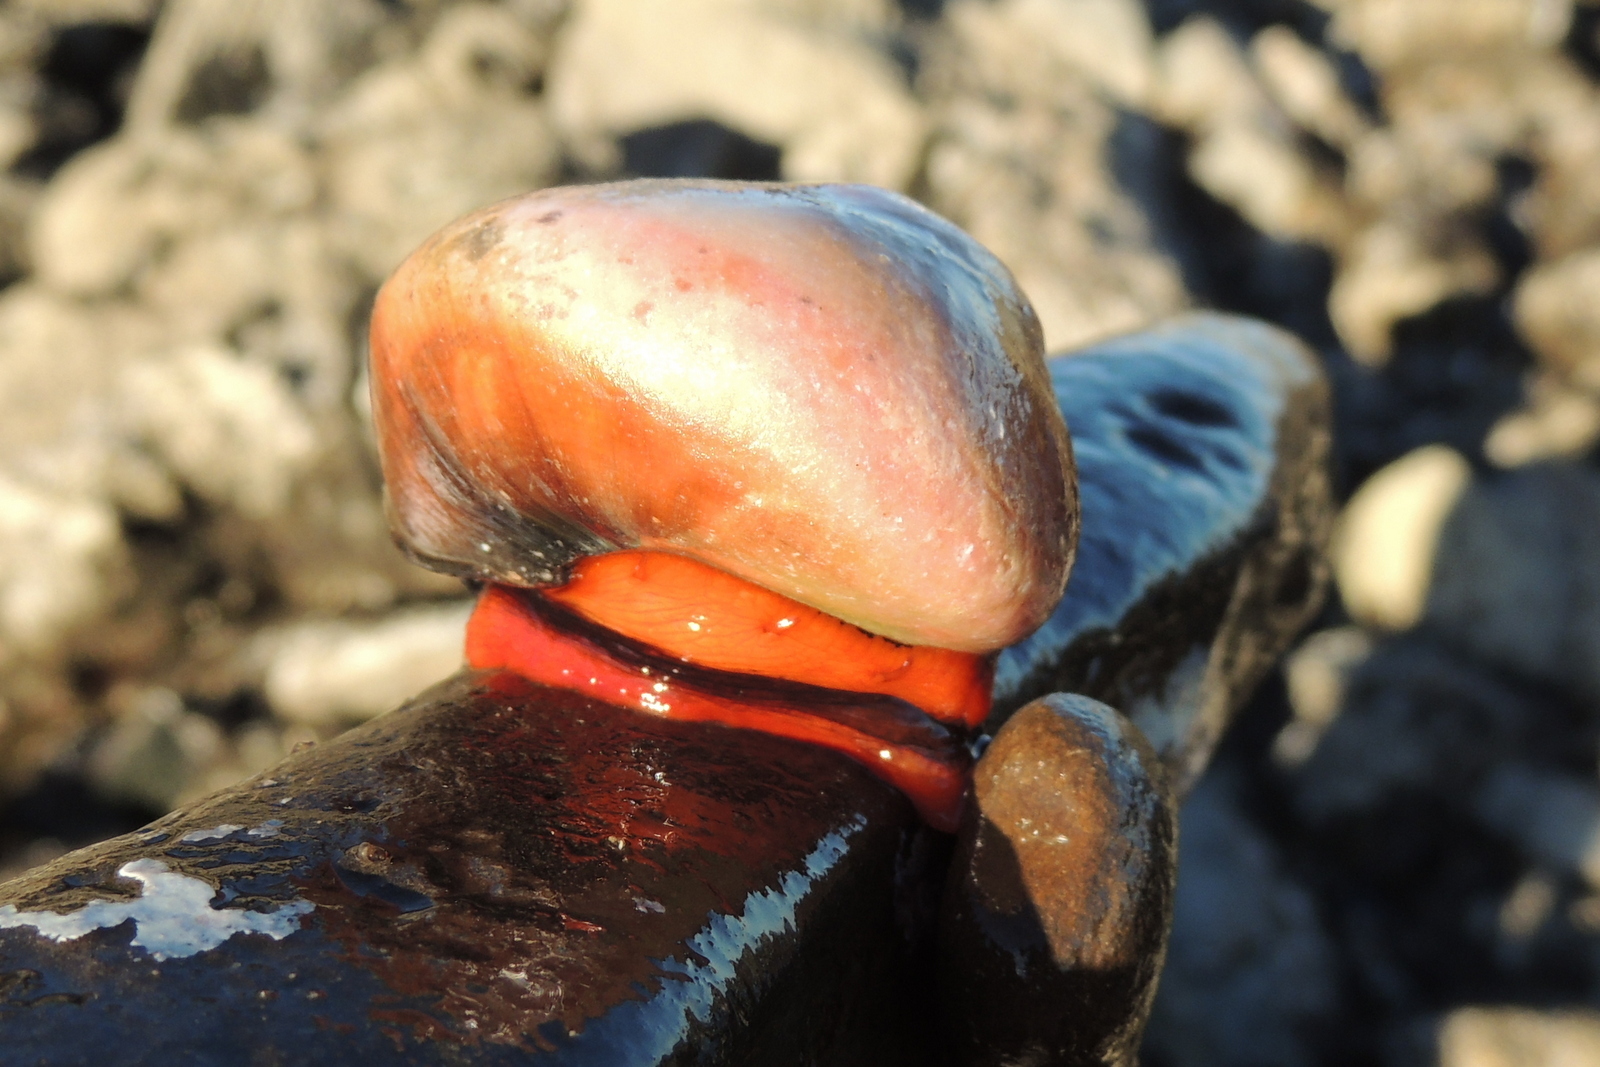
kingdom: Animalia
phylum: Mollusca
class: Gastropoda
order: Trochida
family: Tegulidae
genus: Norrisia
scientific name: Norrisia norrisii
